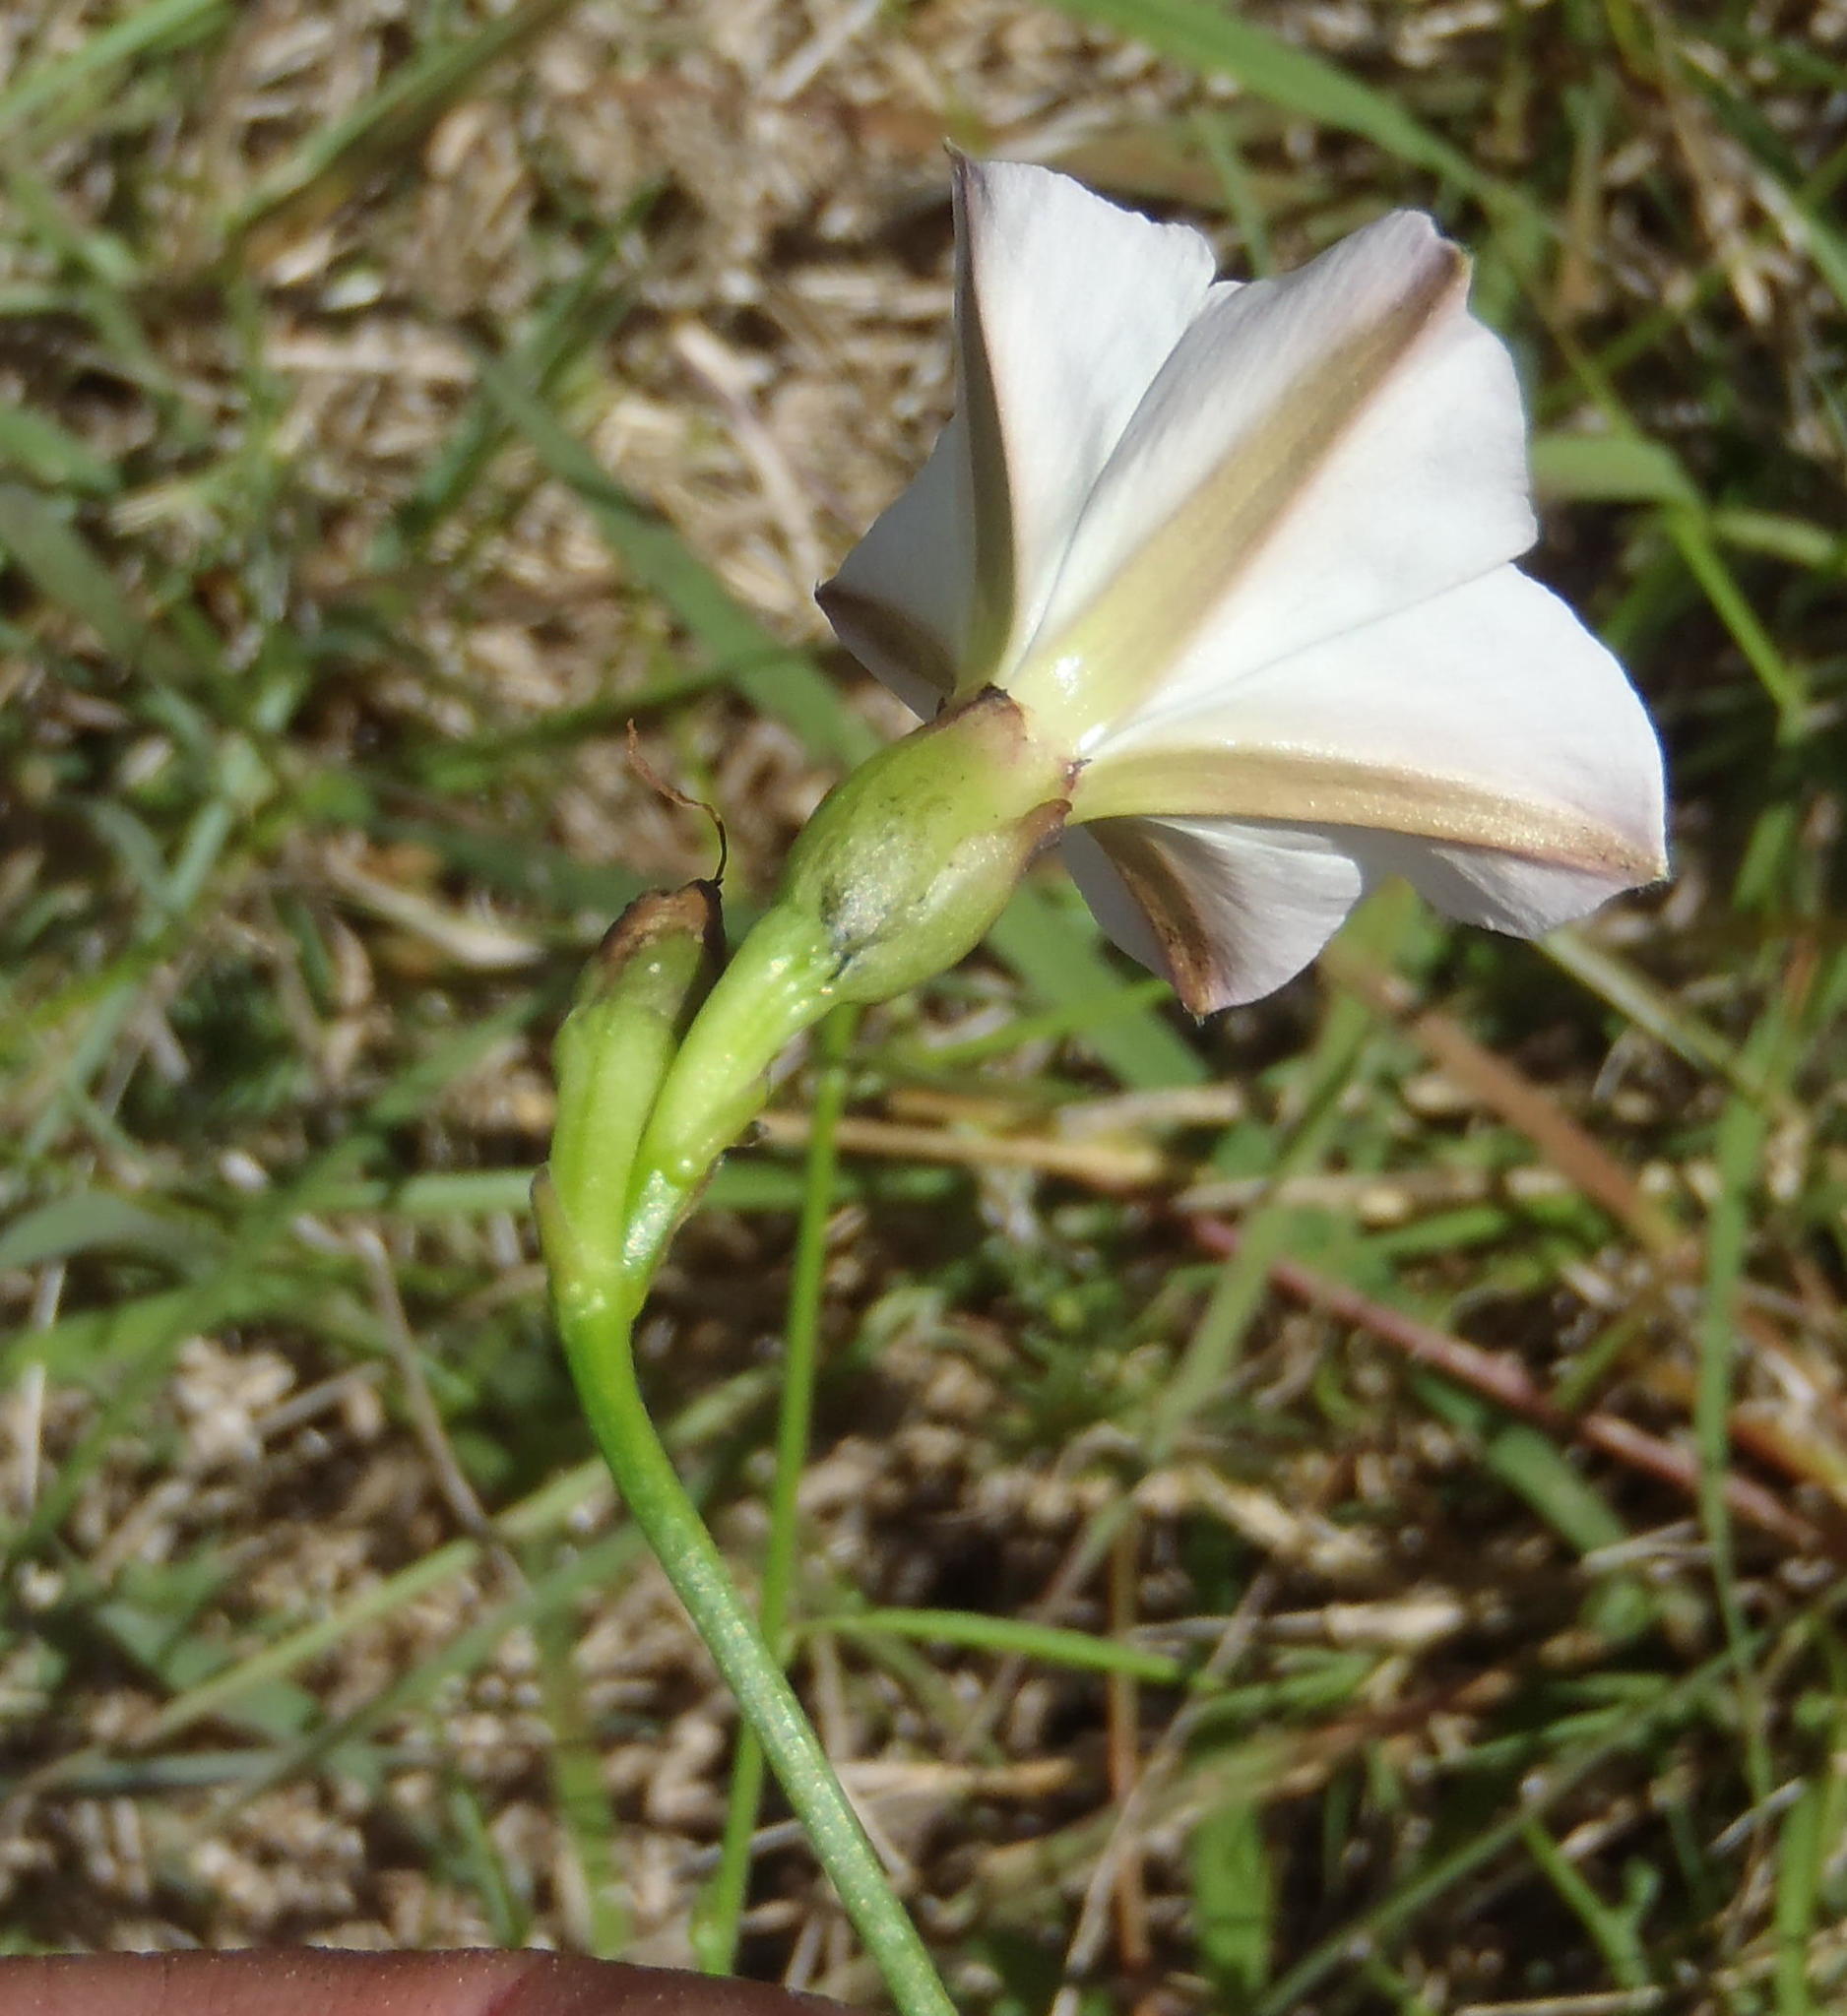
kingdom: Plantae
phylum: Tracheophyta
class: Magnoliopsida
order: Solanales
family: Convolvulaceae
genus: Convolvulus
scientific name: Convolvulus sagittatus
